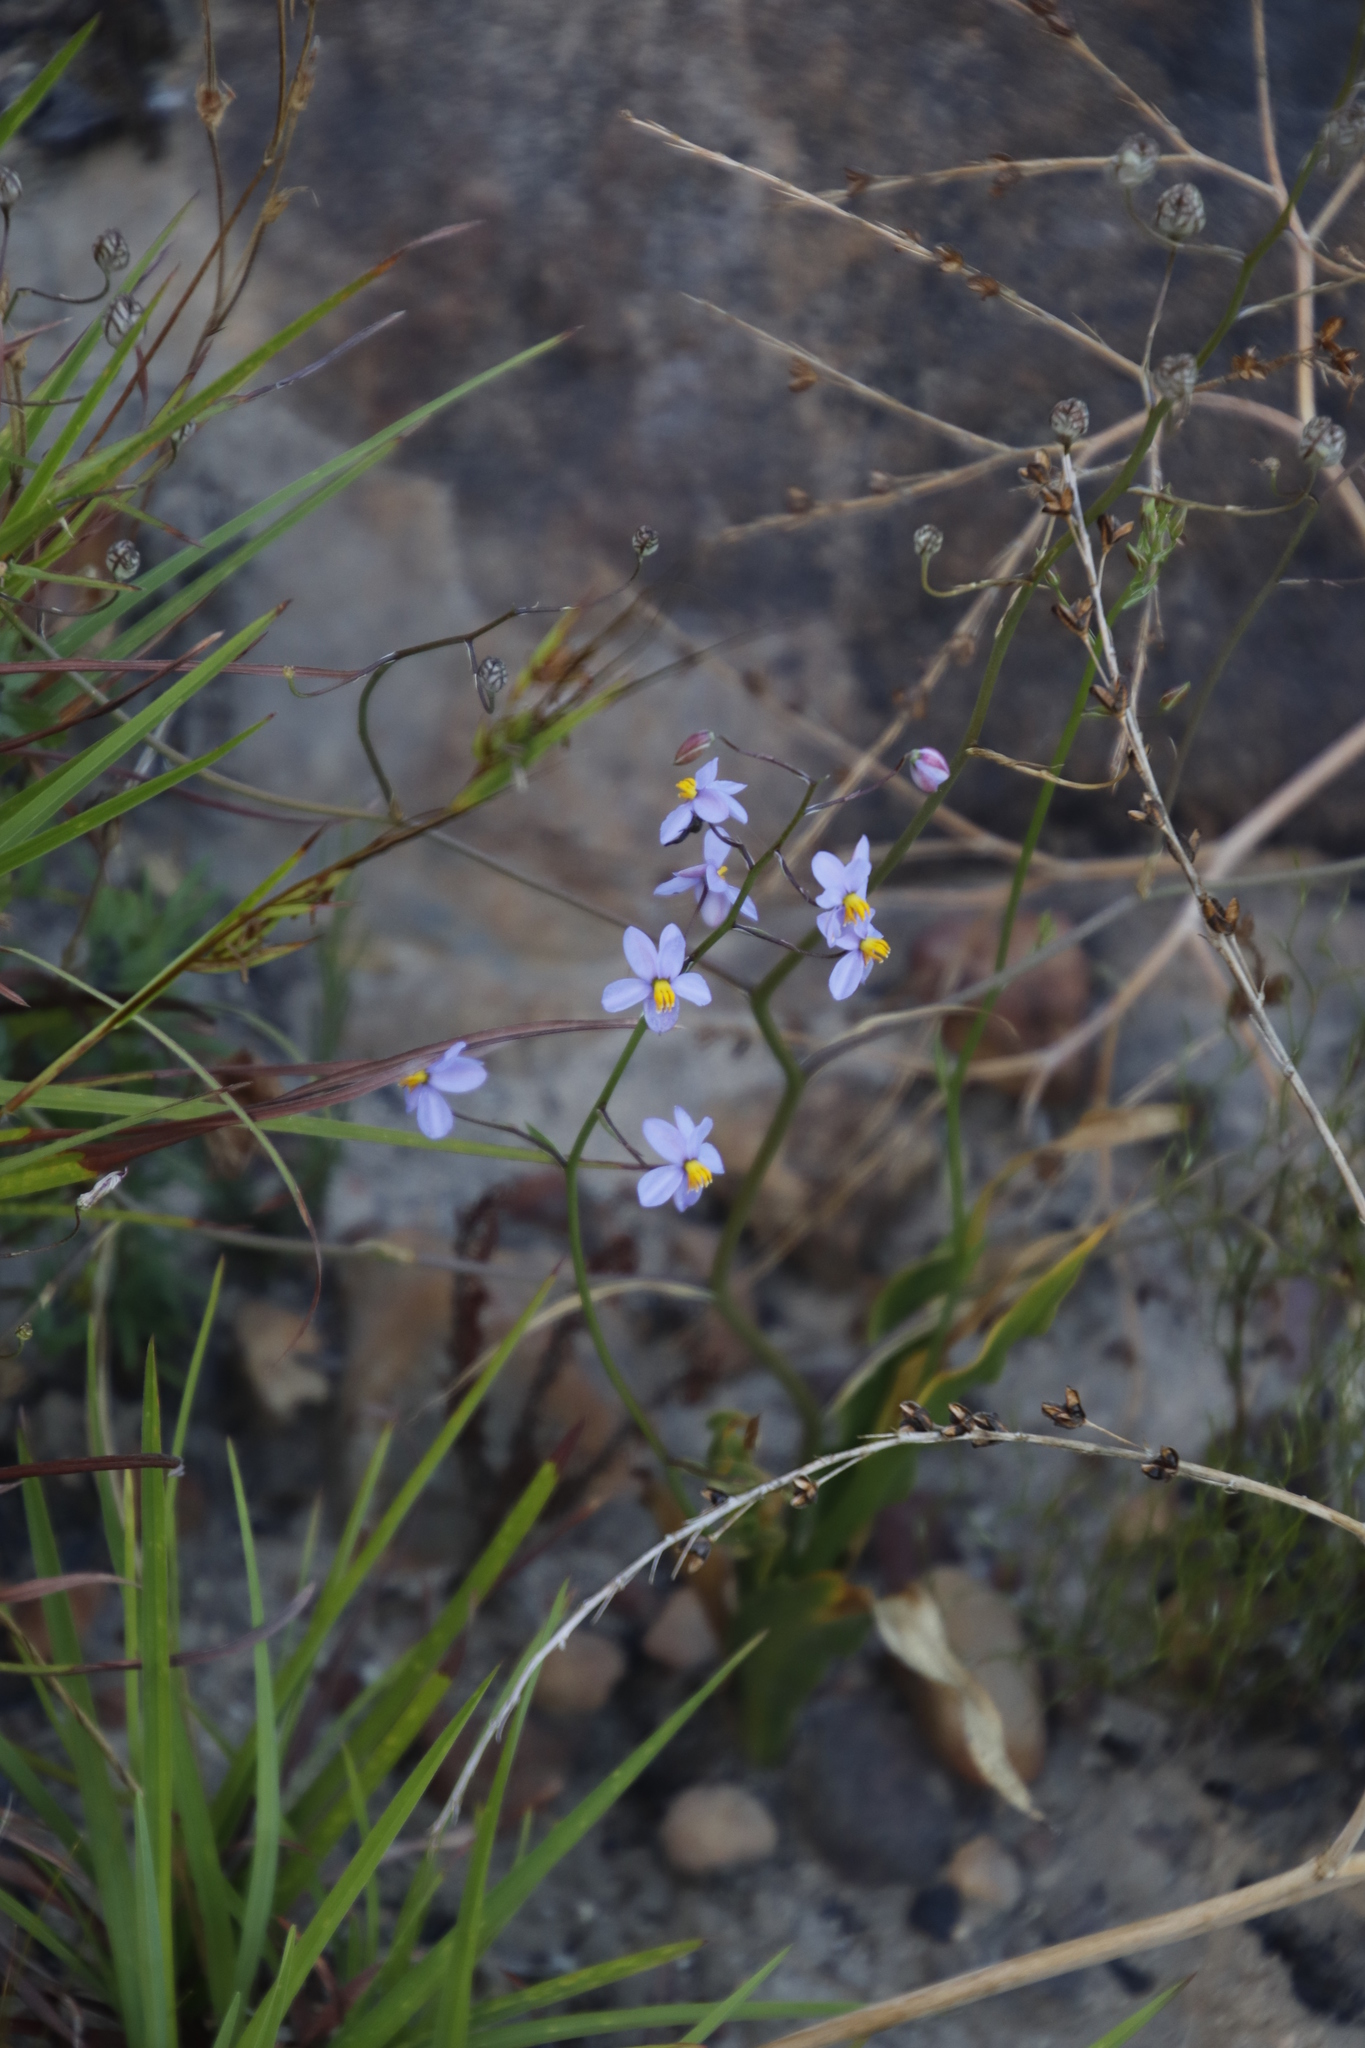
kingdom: Plantae
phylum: Tracheophyta
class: Liliopsida
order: Asparagales
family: Tecophilaeaceae
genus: Cyanella
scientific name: Cyanella hyacinthoides
